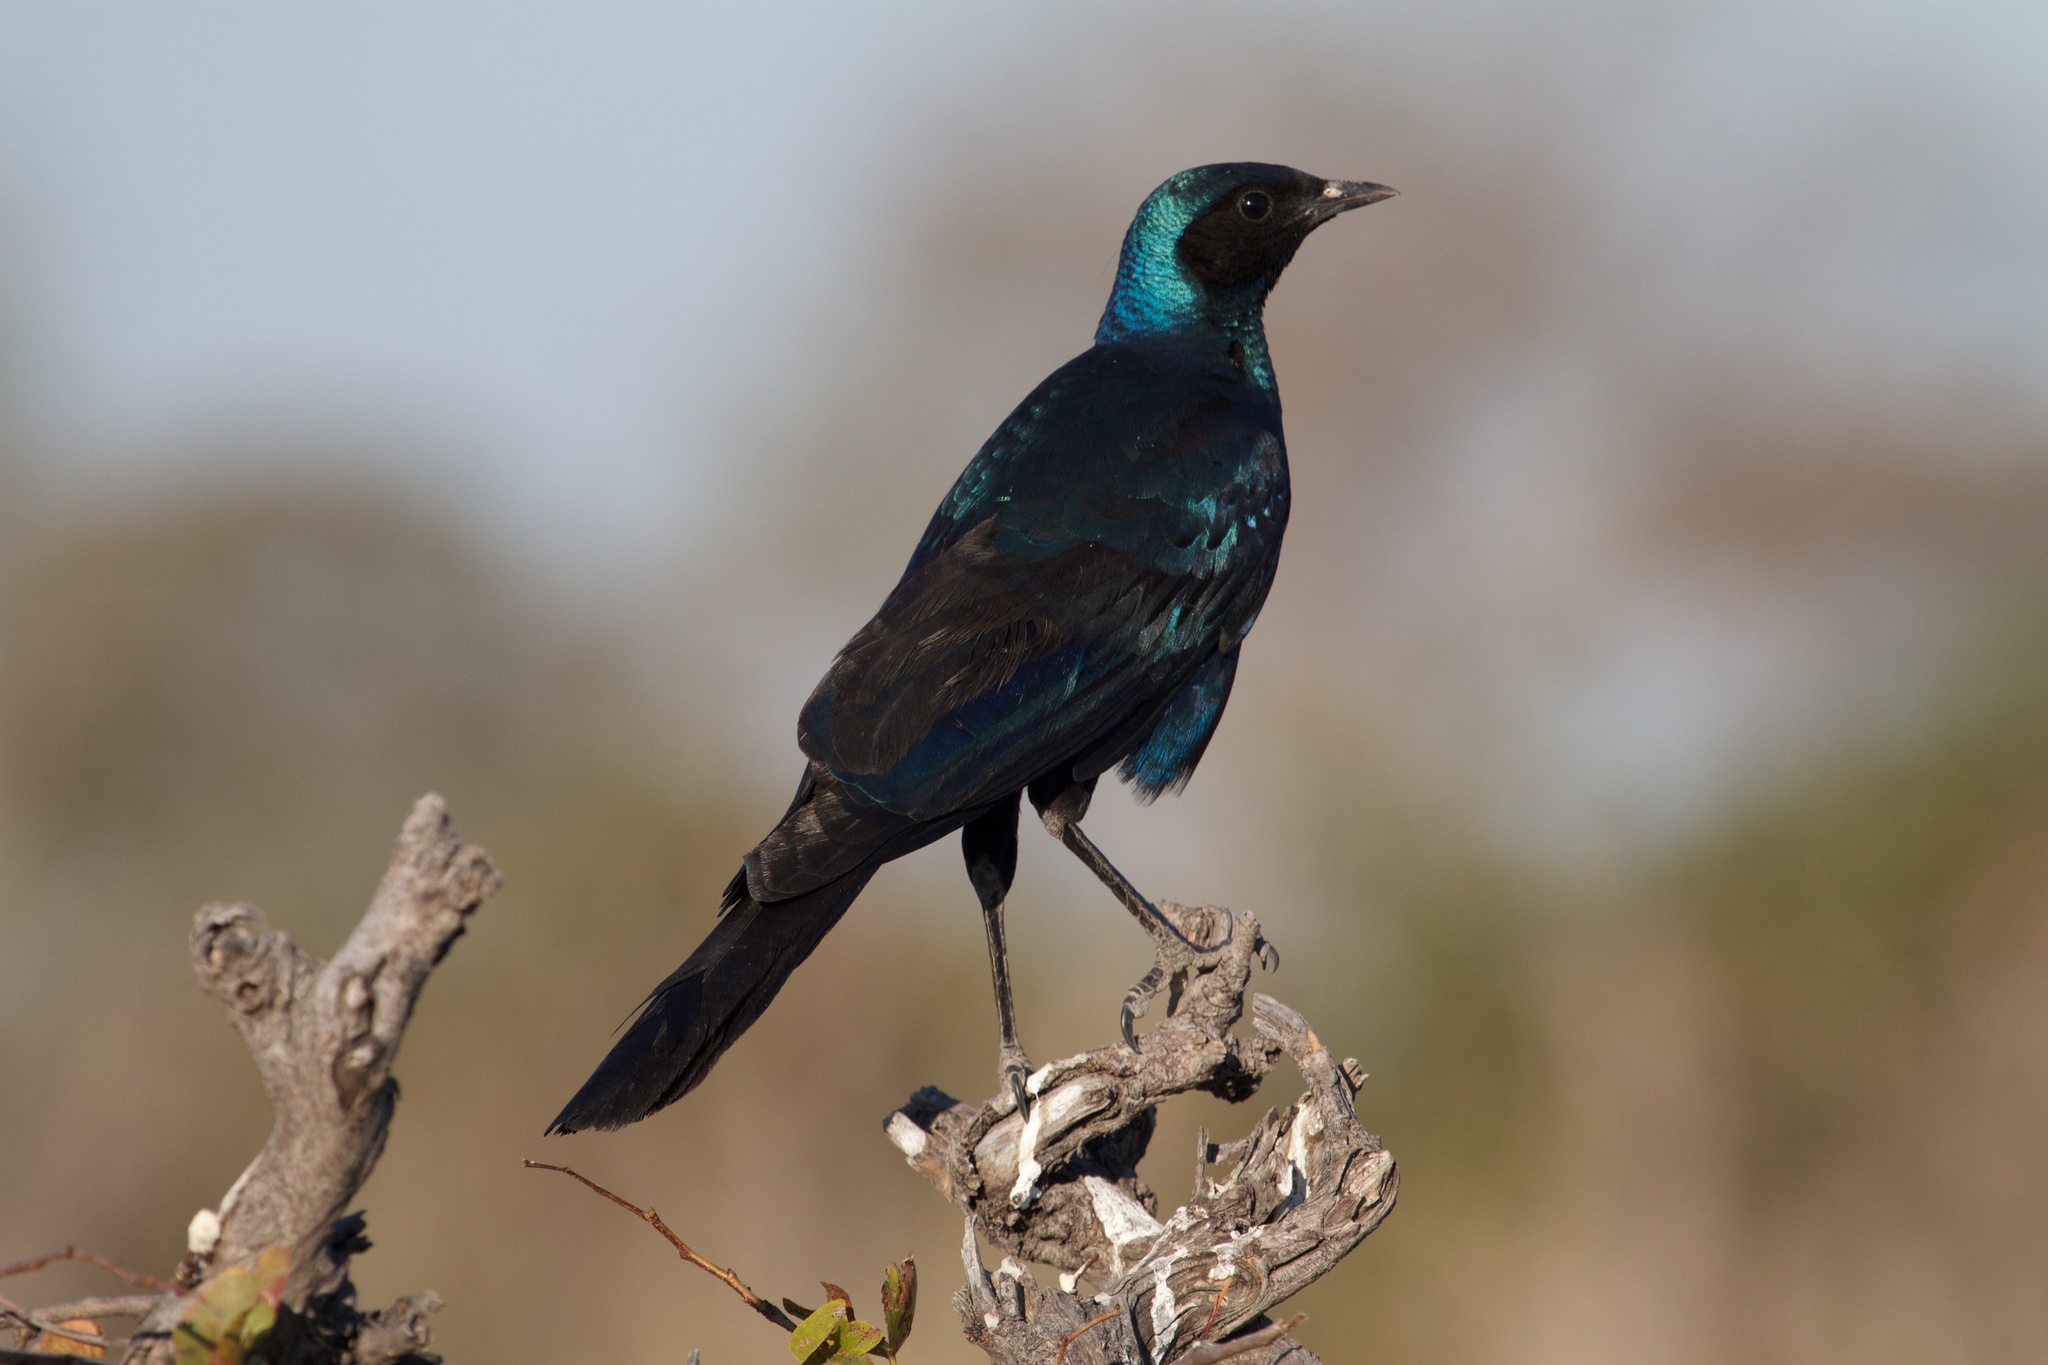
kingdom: Animalia
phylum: Chordata
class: Aves
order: Passeriformes
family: Sturnidae
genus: Lamprotornis
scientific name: Lamprotornis australis
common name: Burchell's starling
